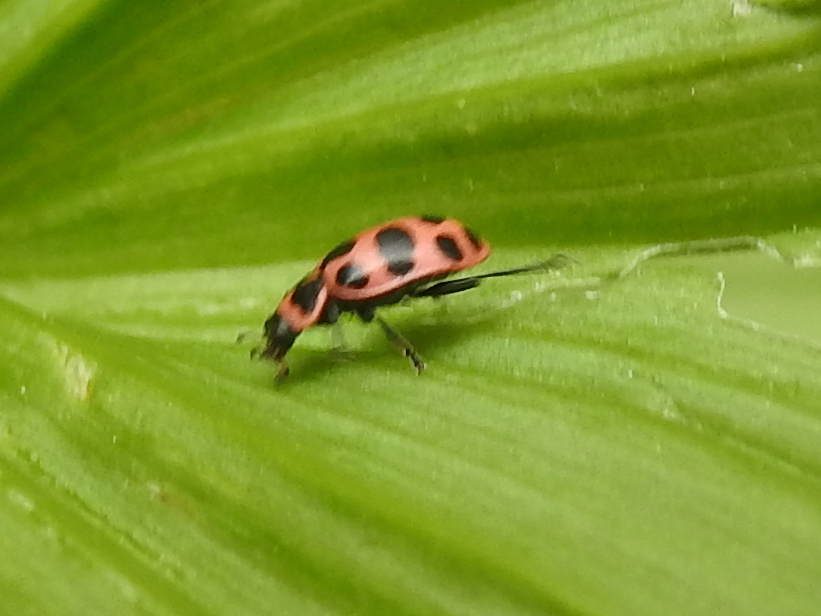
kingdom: Animalia
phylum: Arthropoda
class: Insecta
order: Coleoptera
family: Coccinellidae
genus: Coleomegilla
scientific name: Coleomegilla maculata
